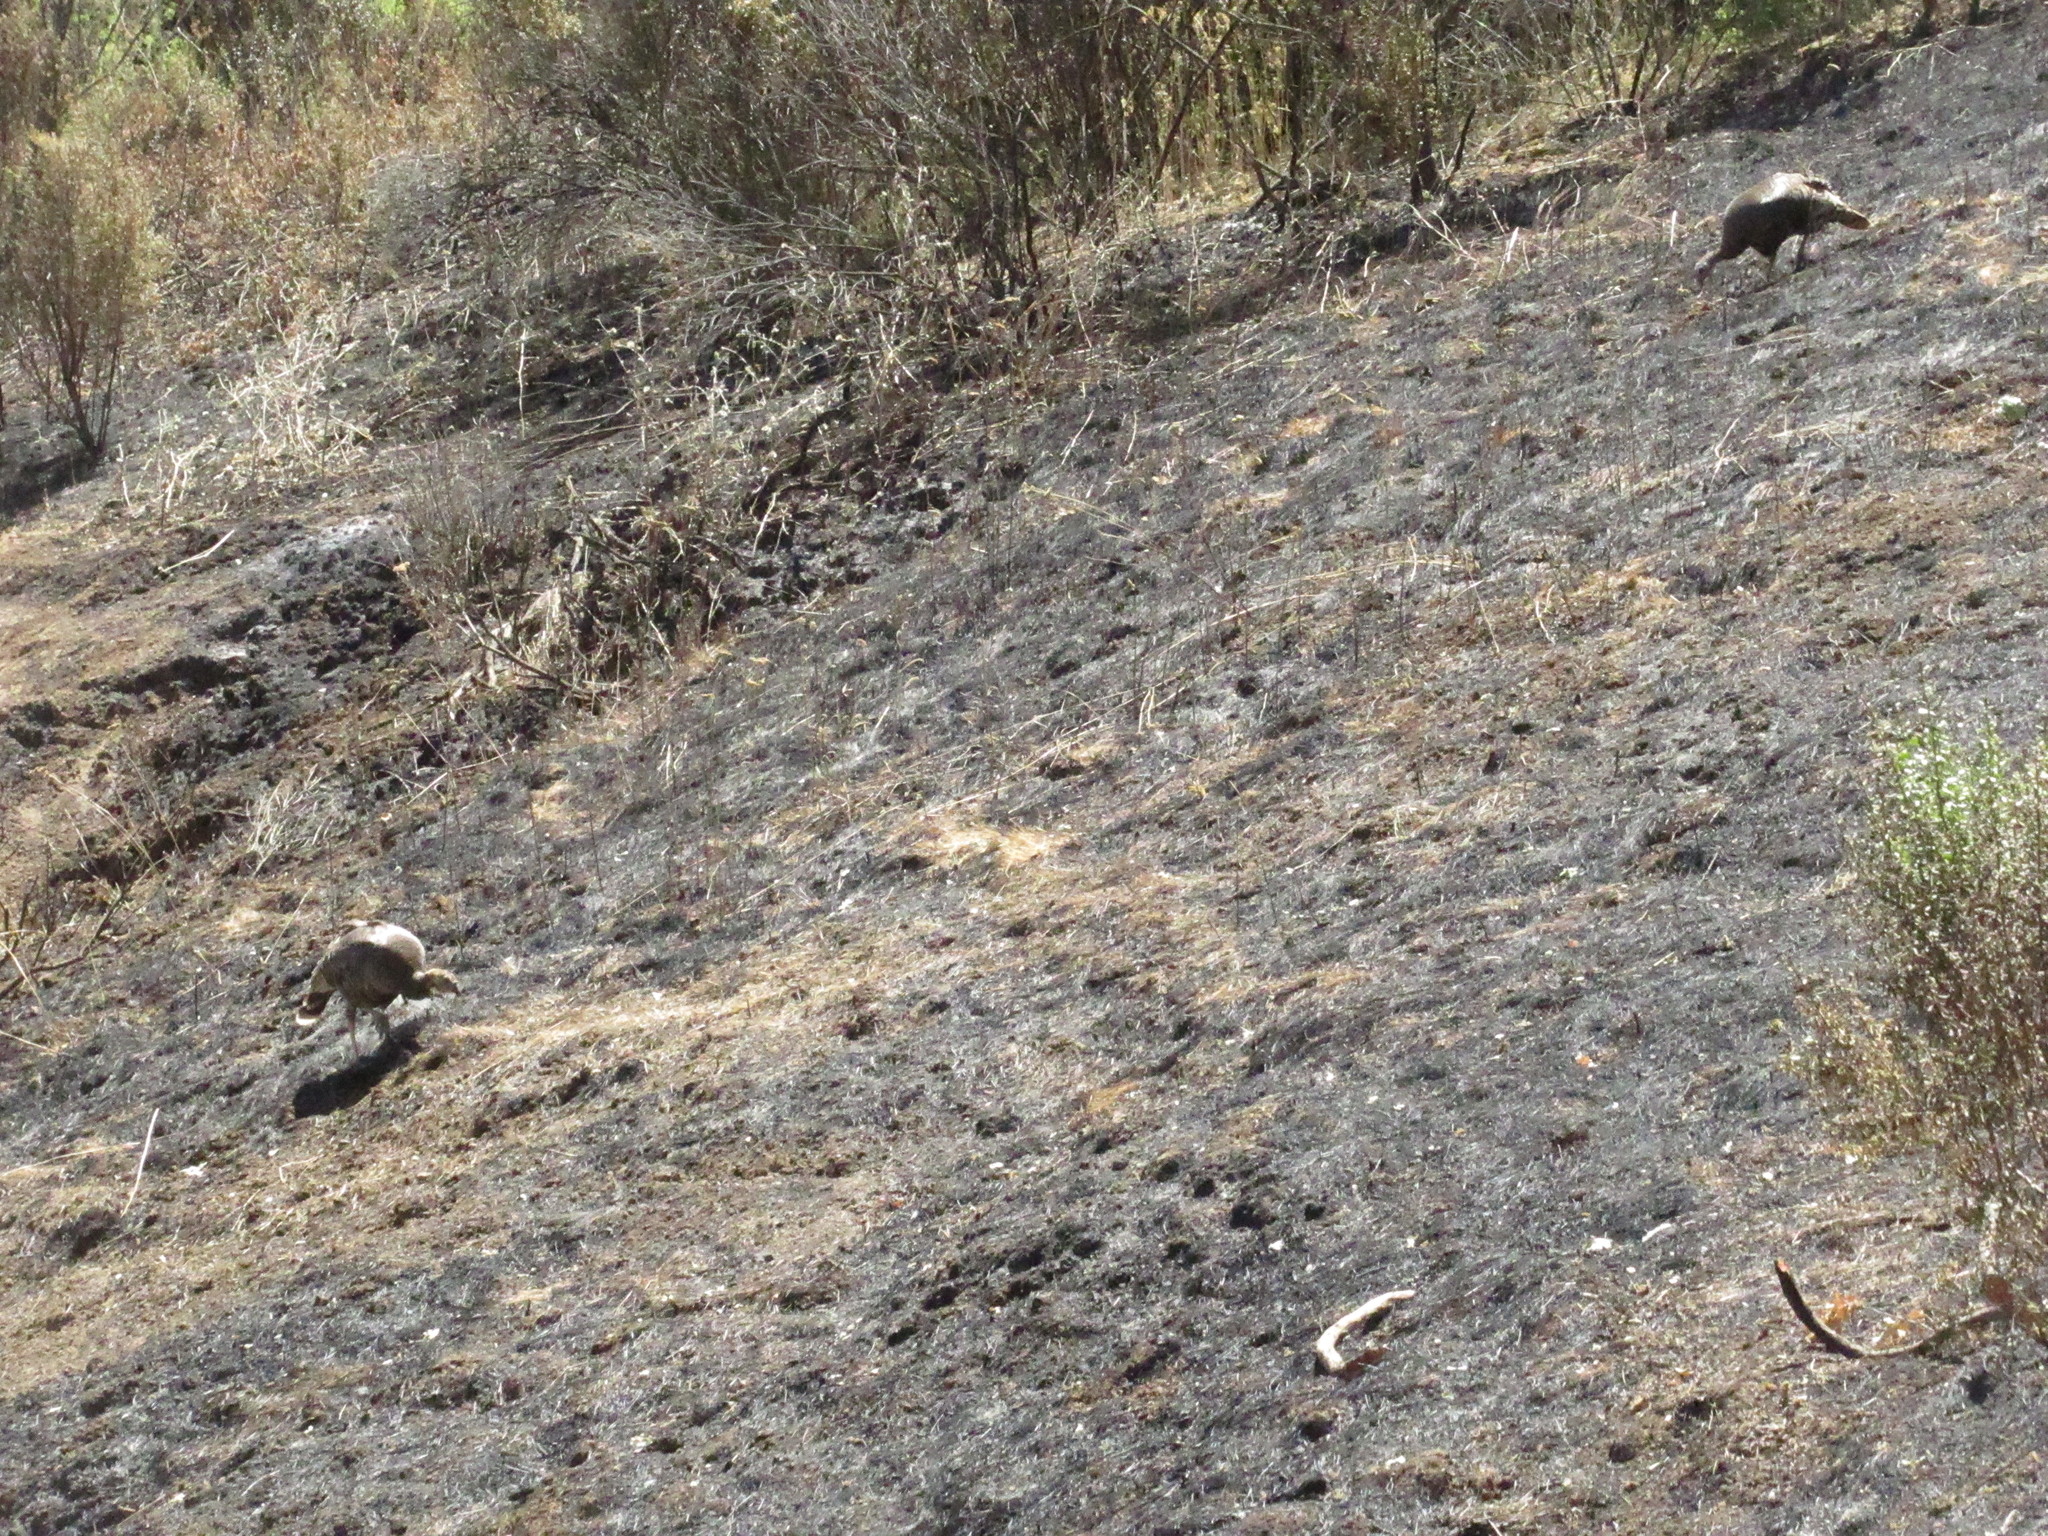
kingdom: Animalia
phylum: Chordata
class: Aves
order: Galliformes
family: Phasianidae
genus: Meleagris
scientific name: Meleagris gallopavo
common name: Wild turkey
